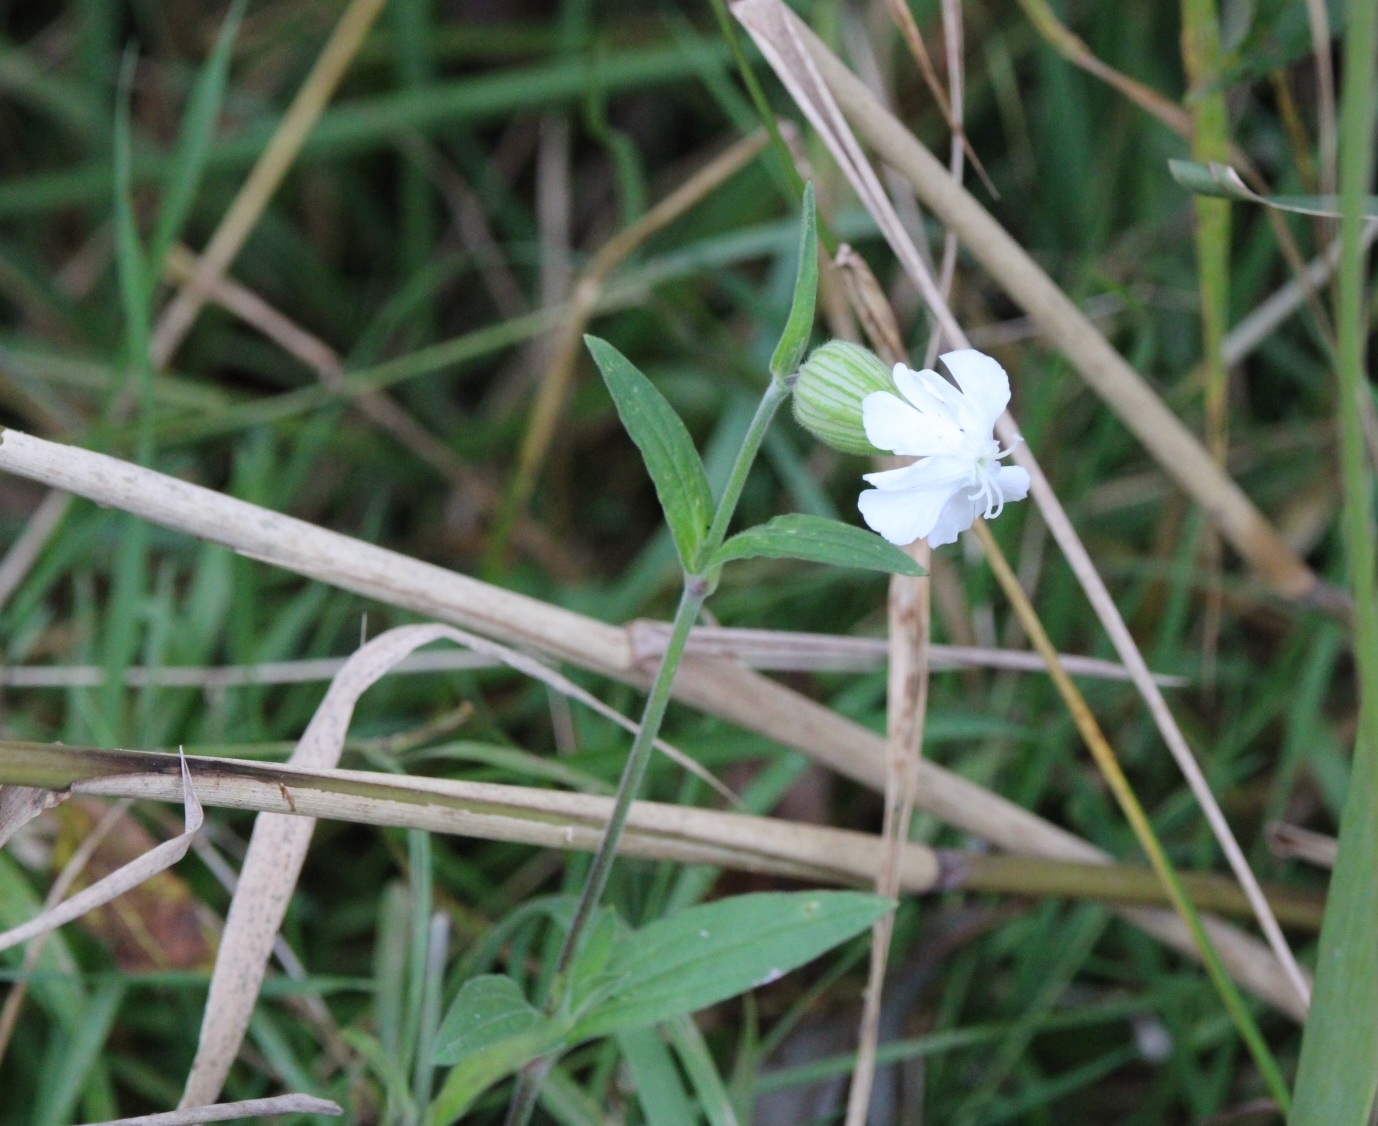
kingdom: Plantae
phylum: Tracheophyta
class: Magnoliopsida
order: Caryophyllales
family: Caryophyllaceae
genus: Silene
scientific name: Silene latifolia
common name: White campion
